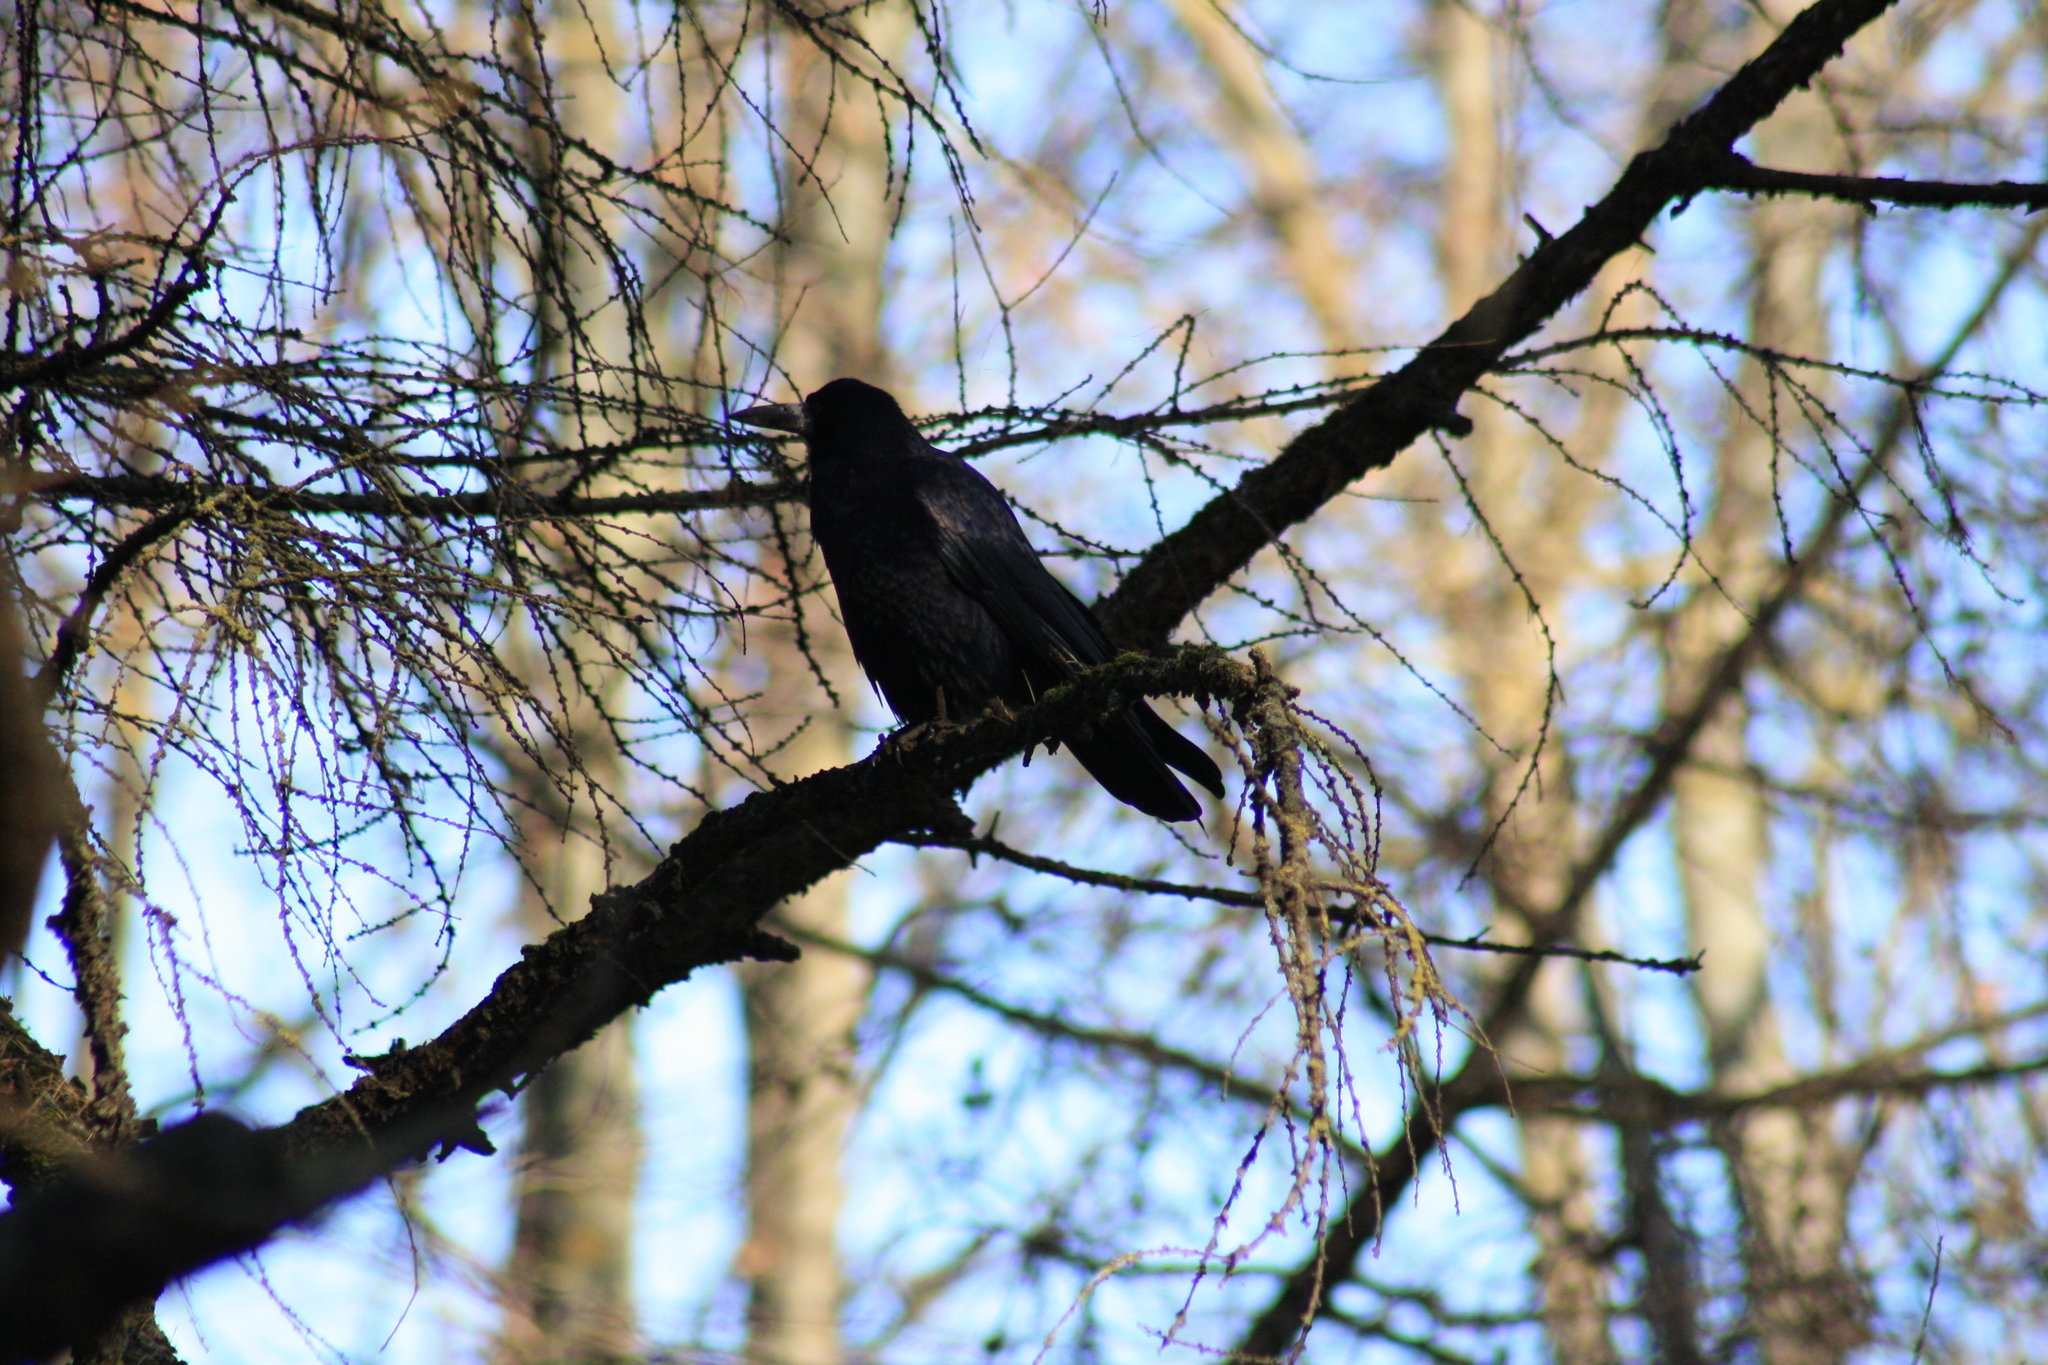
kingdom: Animalia
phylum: Chordata
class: Aves
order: Passeriformes
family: Corvidae
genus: Corvus
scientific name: Corvus frugilegus
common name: Rook
